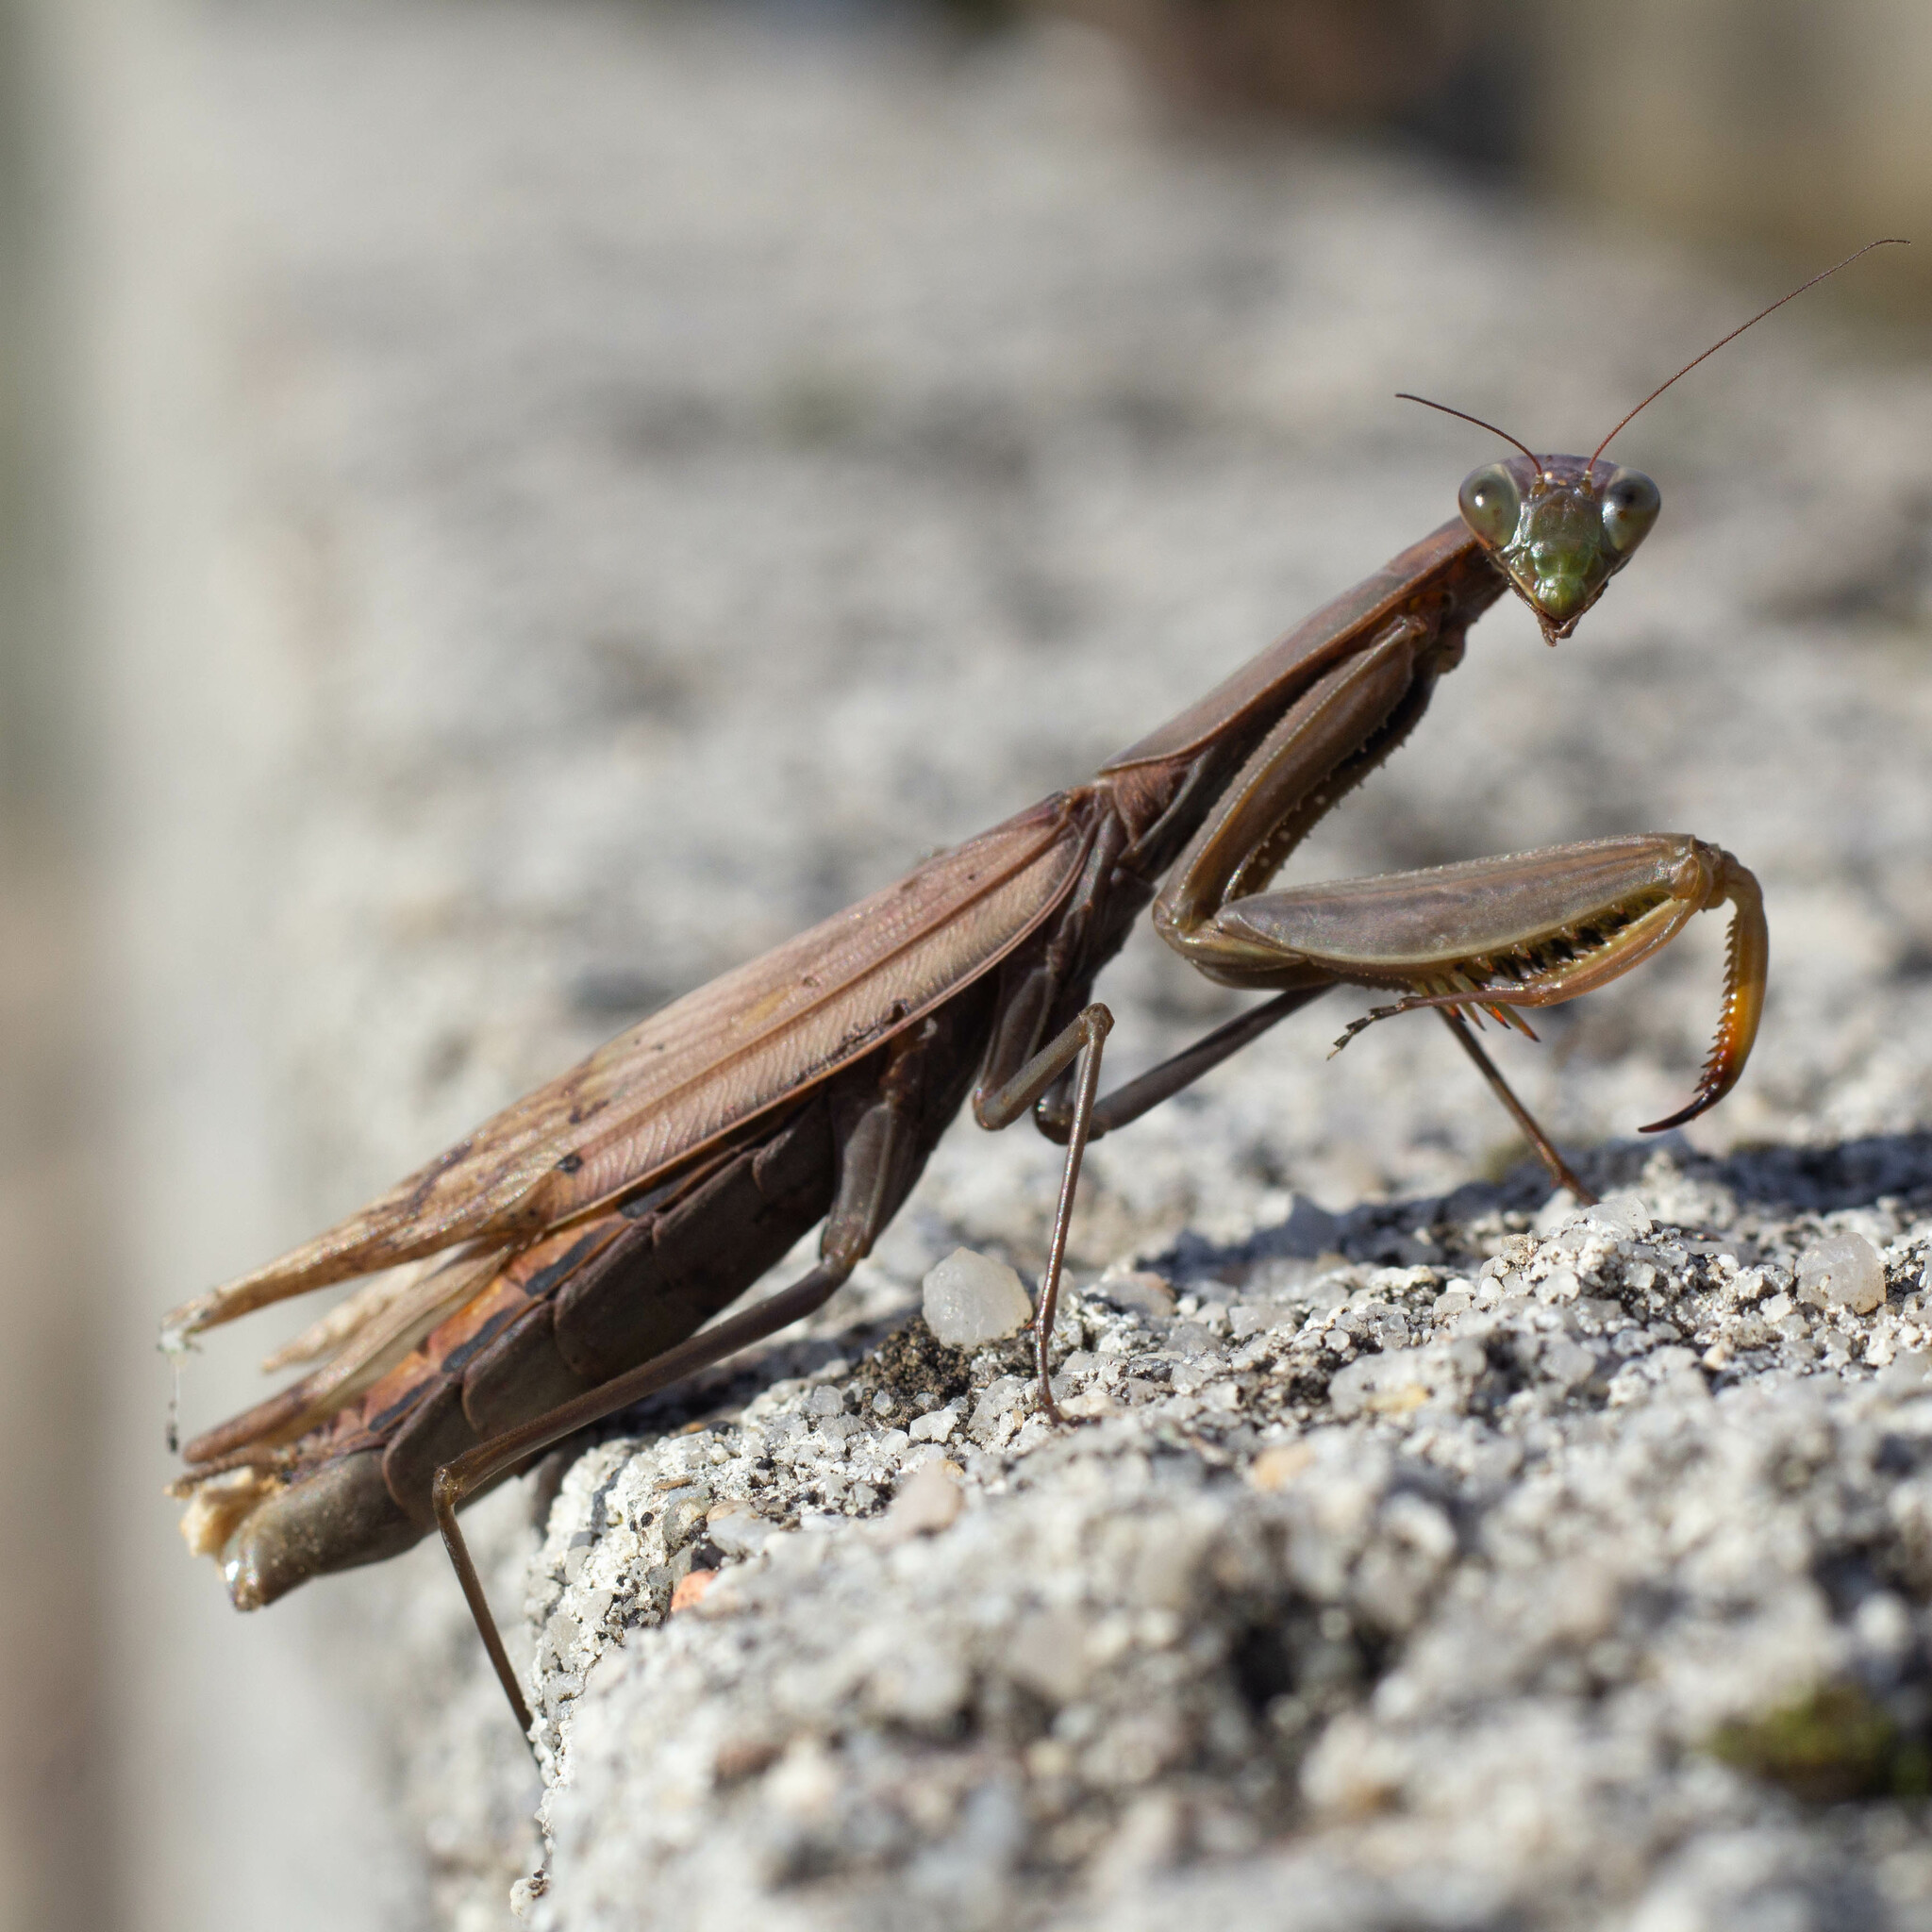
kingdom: Animalia
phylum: Arthropoda
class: Insecta
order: Mantodea
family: Mantidae
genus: Mantis
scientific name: Mantis religiosa
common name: Praying mantis
